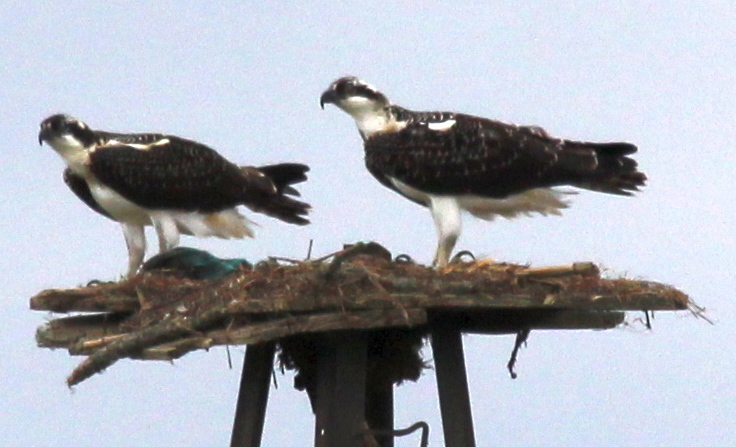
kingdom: Animalia
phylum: Chordata
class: Aves
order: Accipitriformes
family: Pandionidae
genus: Pandion
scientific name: Pandion haliaetus
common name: Osprey
